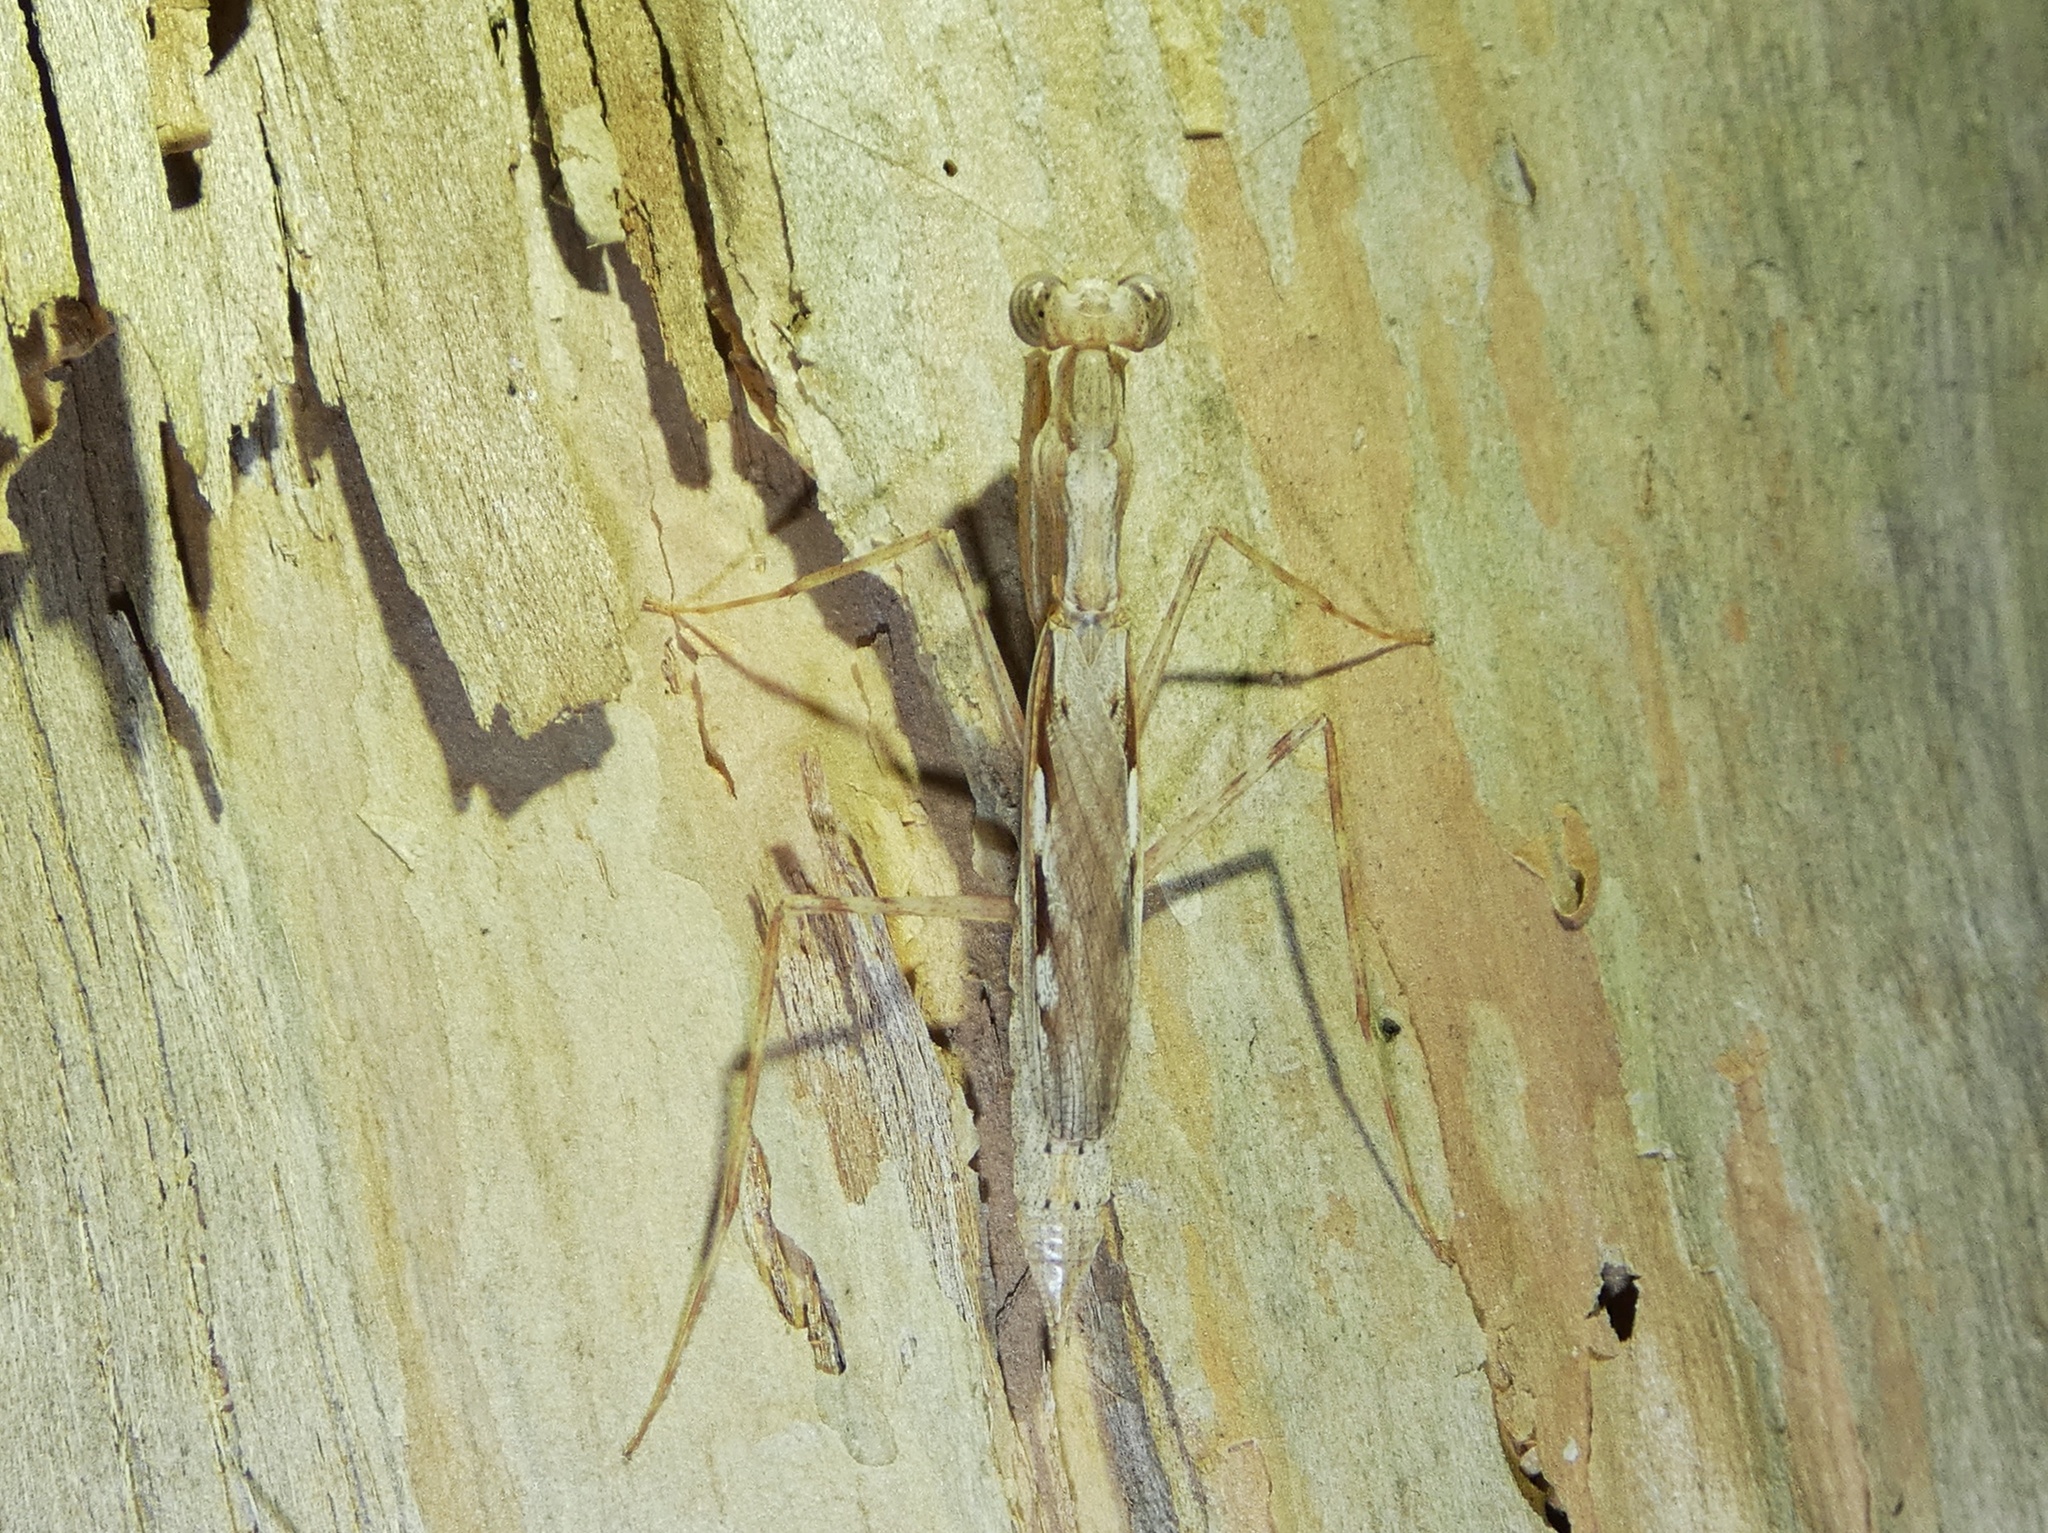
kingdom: Animalia
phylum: Arthropoda
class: Insecta
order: Mantodea
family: Nanomantidae
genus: Ima
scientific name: Ima fusca
